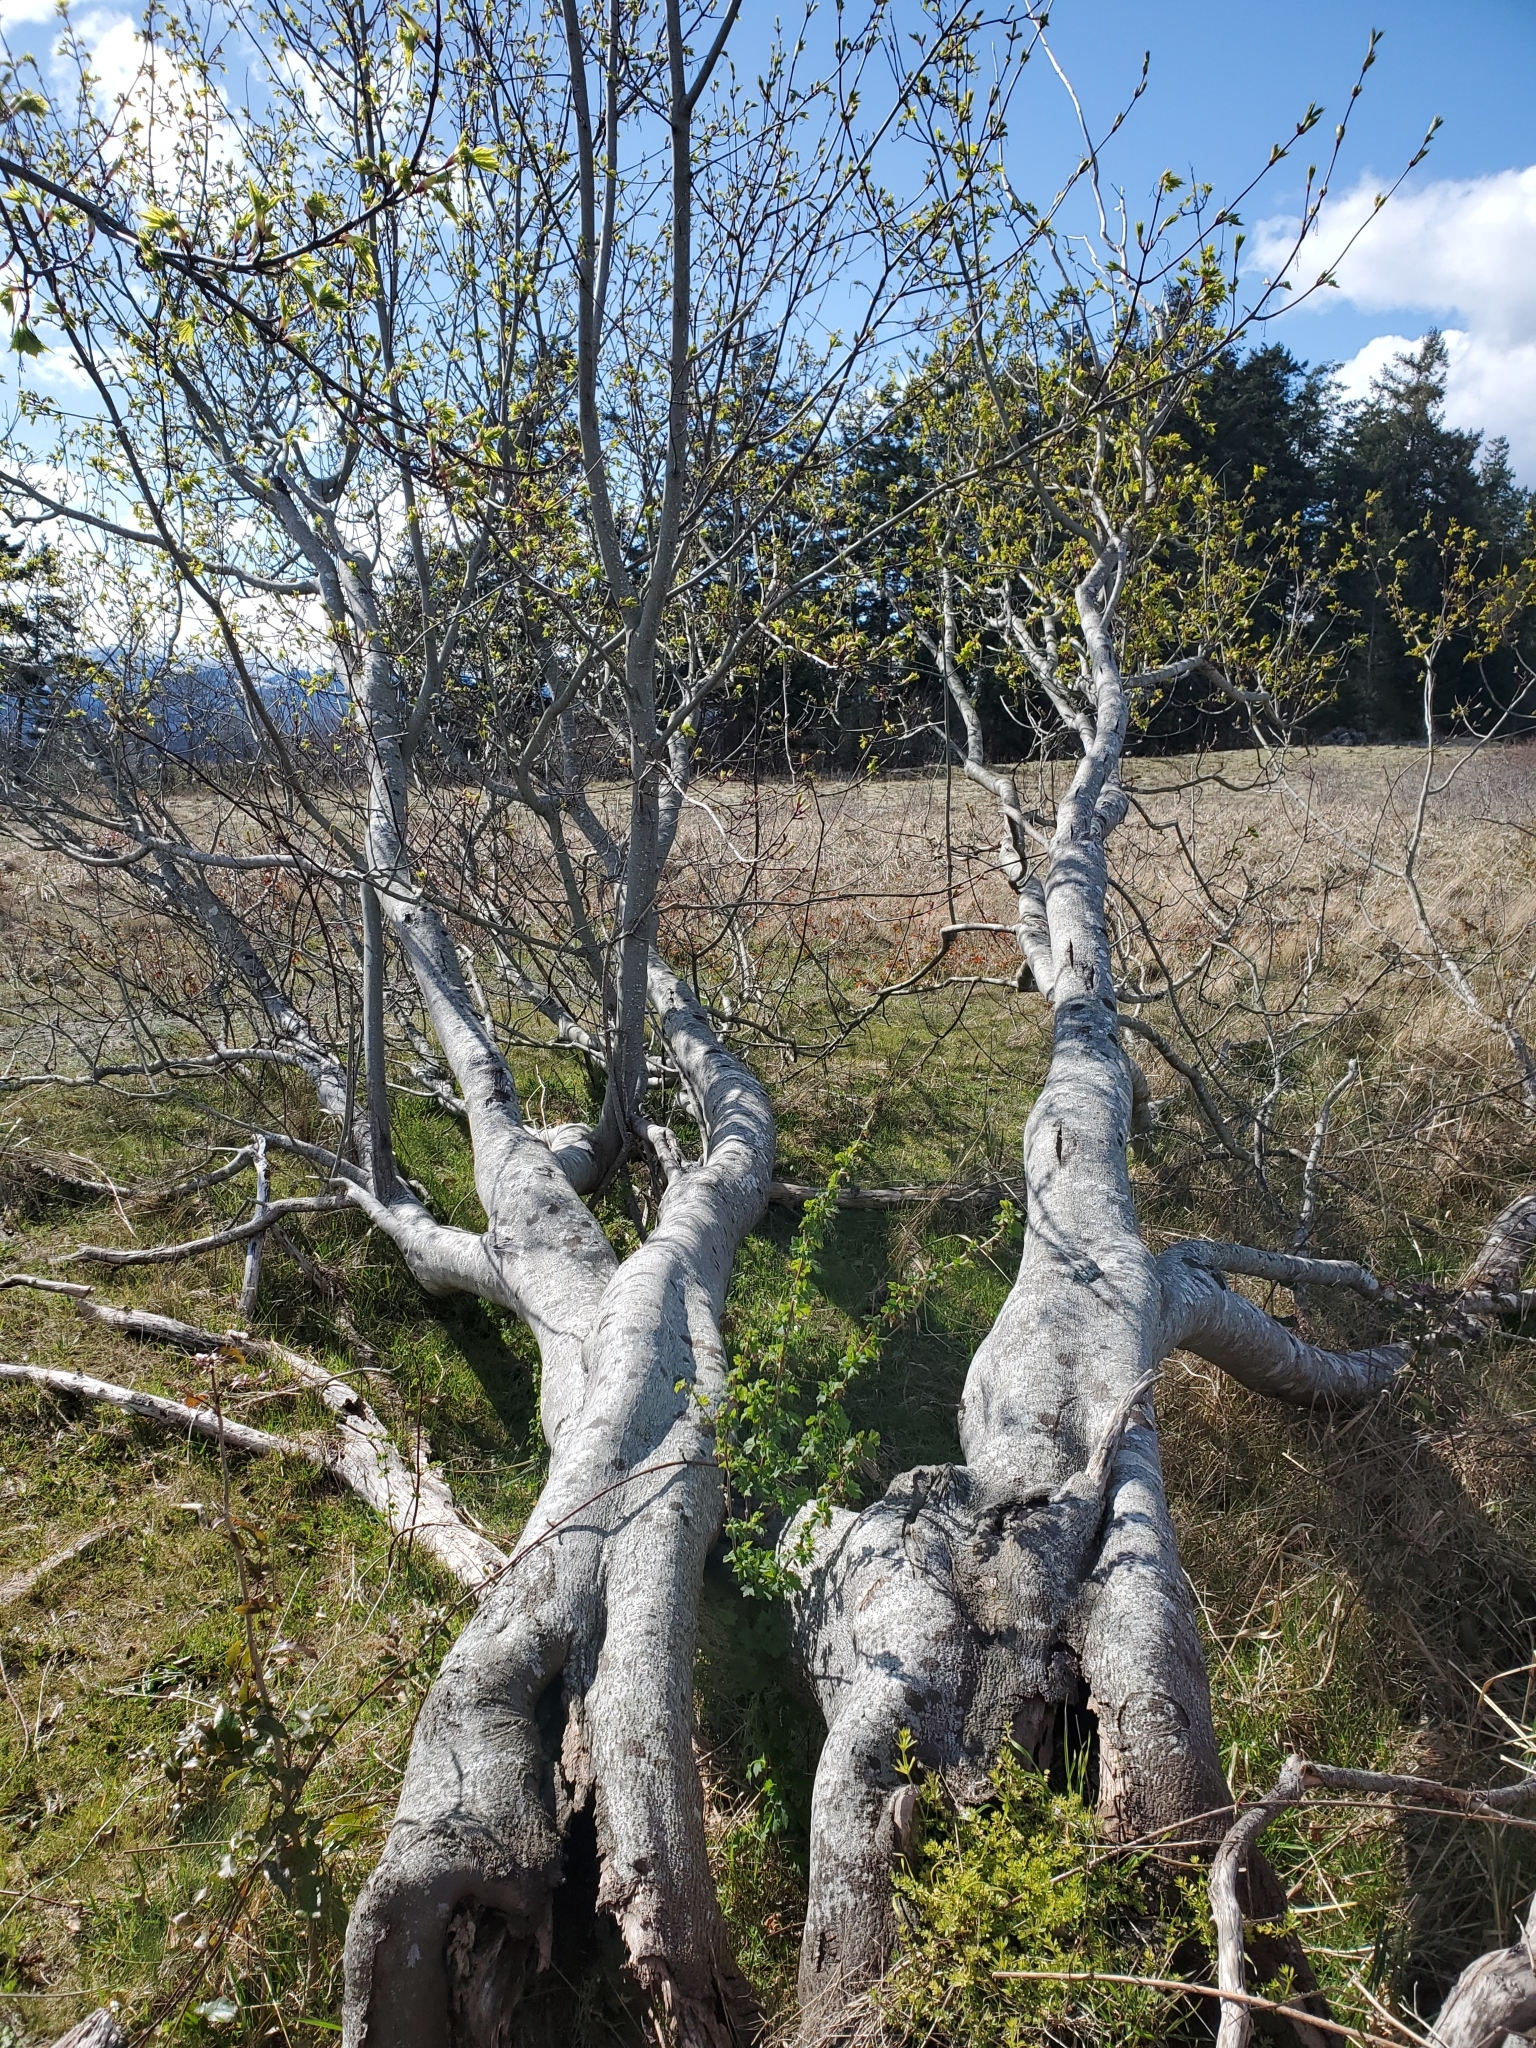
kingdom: Plantae
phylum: Tracheophyta
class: Magnoliopsida
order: Sapindales
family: Sapindaceae
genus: Acer
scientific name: Acer glabrum
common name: Rocky mountain maple
